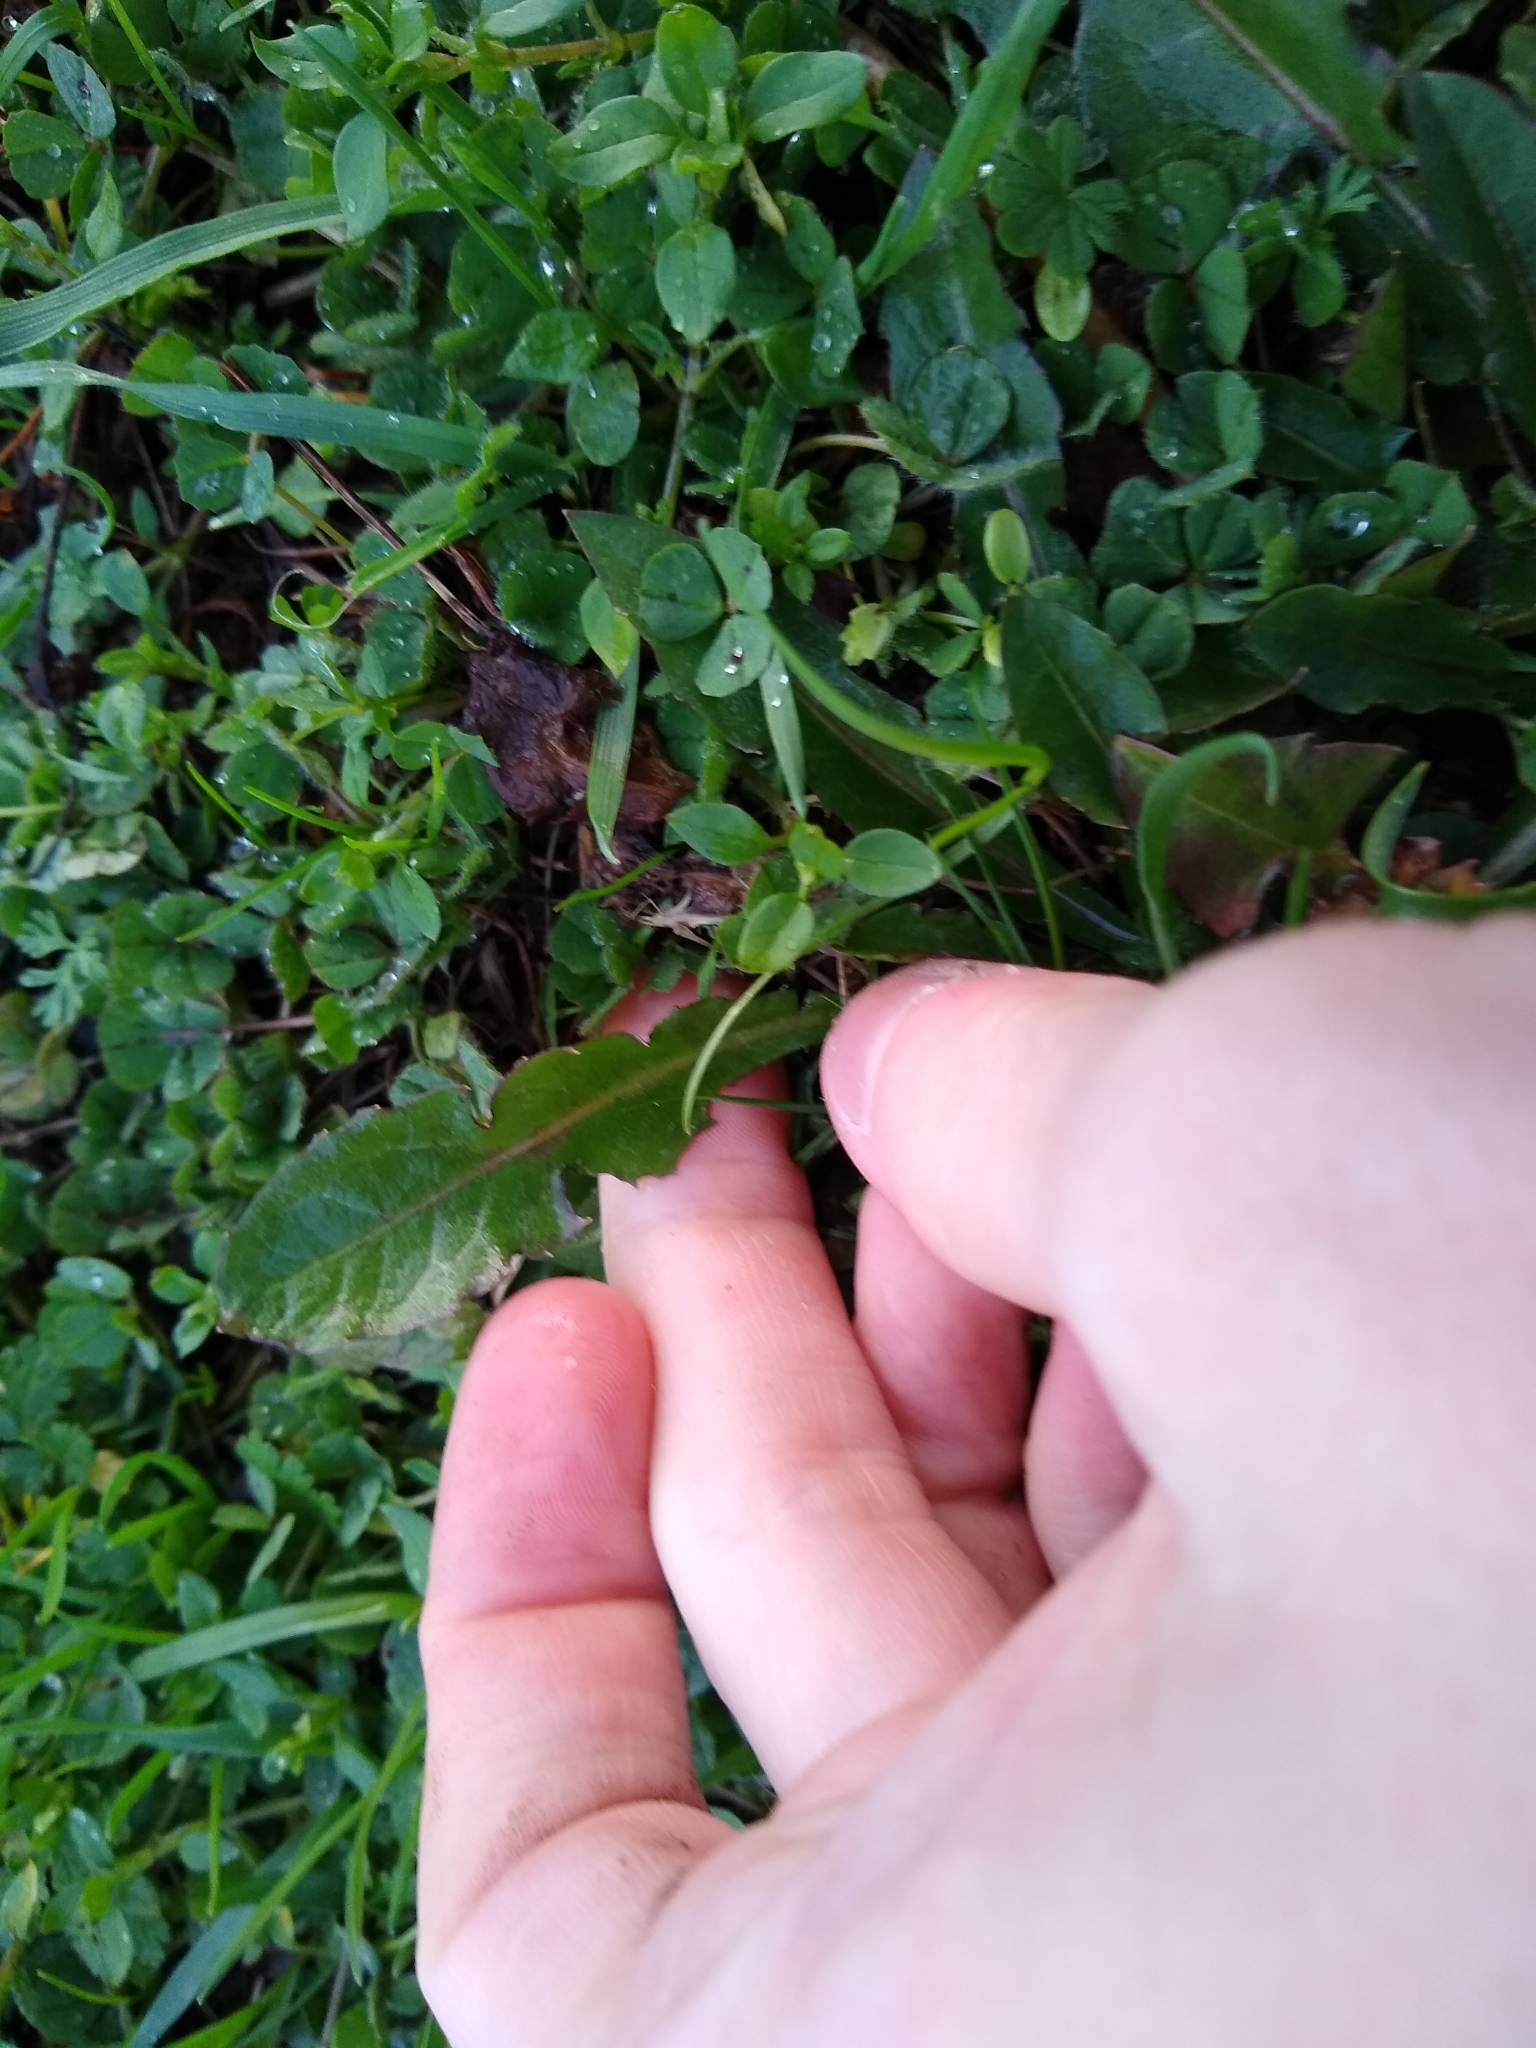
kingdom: Plantae
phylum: Tracheophyta
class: Magnoliopsida
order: Asterales
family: Asteraceae
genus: Taraxacum
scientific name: Taraxacum officinale
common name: Common dandelion
